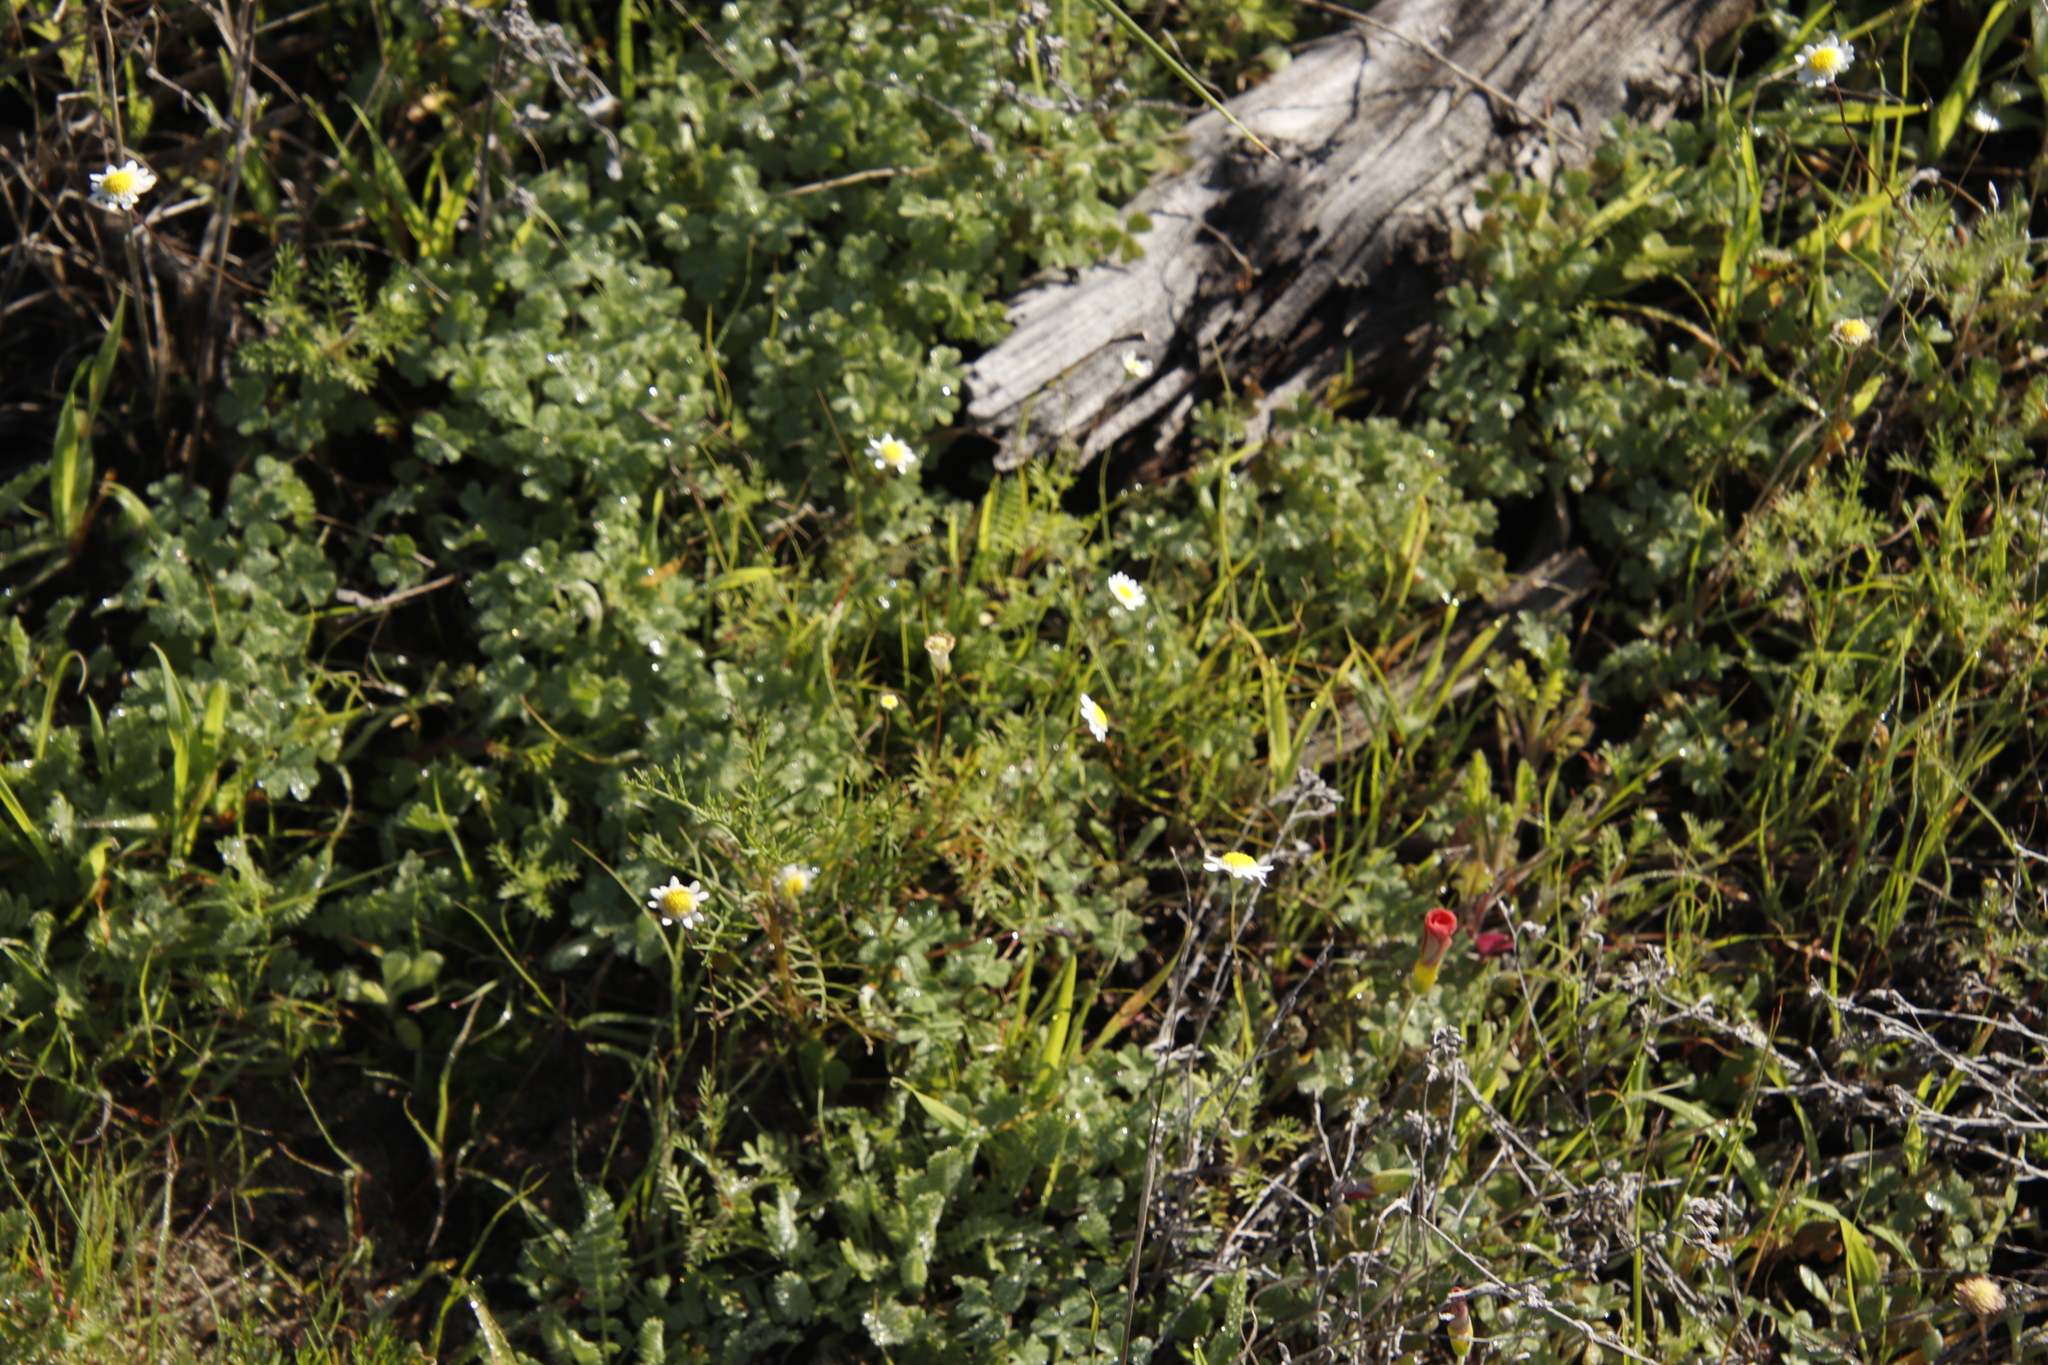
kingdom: Plantae
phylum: Tracheophyta
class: Magnoliopsida
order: Asterales
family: Asteraceae
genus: Cotula
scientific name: Cotula turbinata
